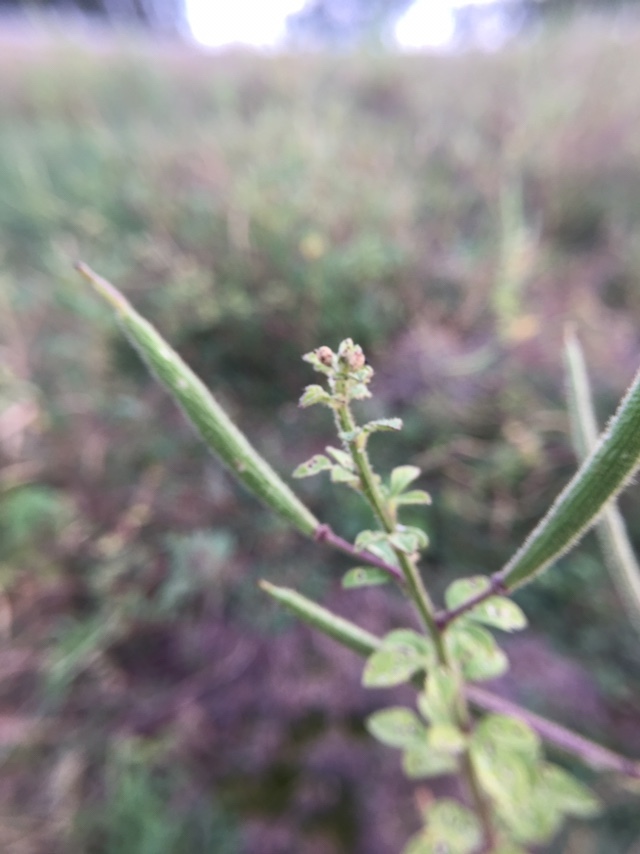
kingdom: Plantae
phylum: Tracheophyta
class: Magnoliopsida
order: Brassicales
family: Cleomaceae
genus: Arivela
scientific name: Arivela viscosa
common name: Asian spiderflower
